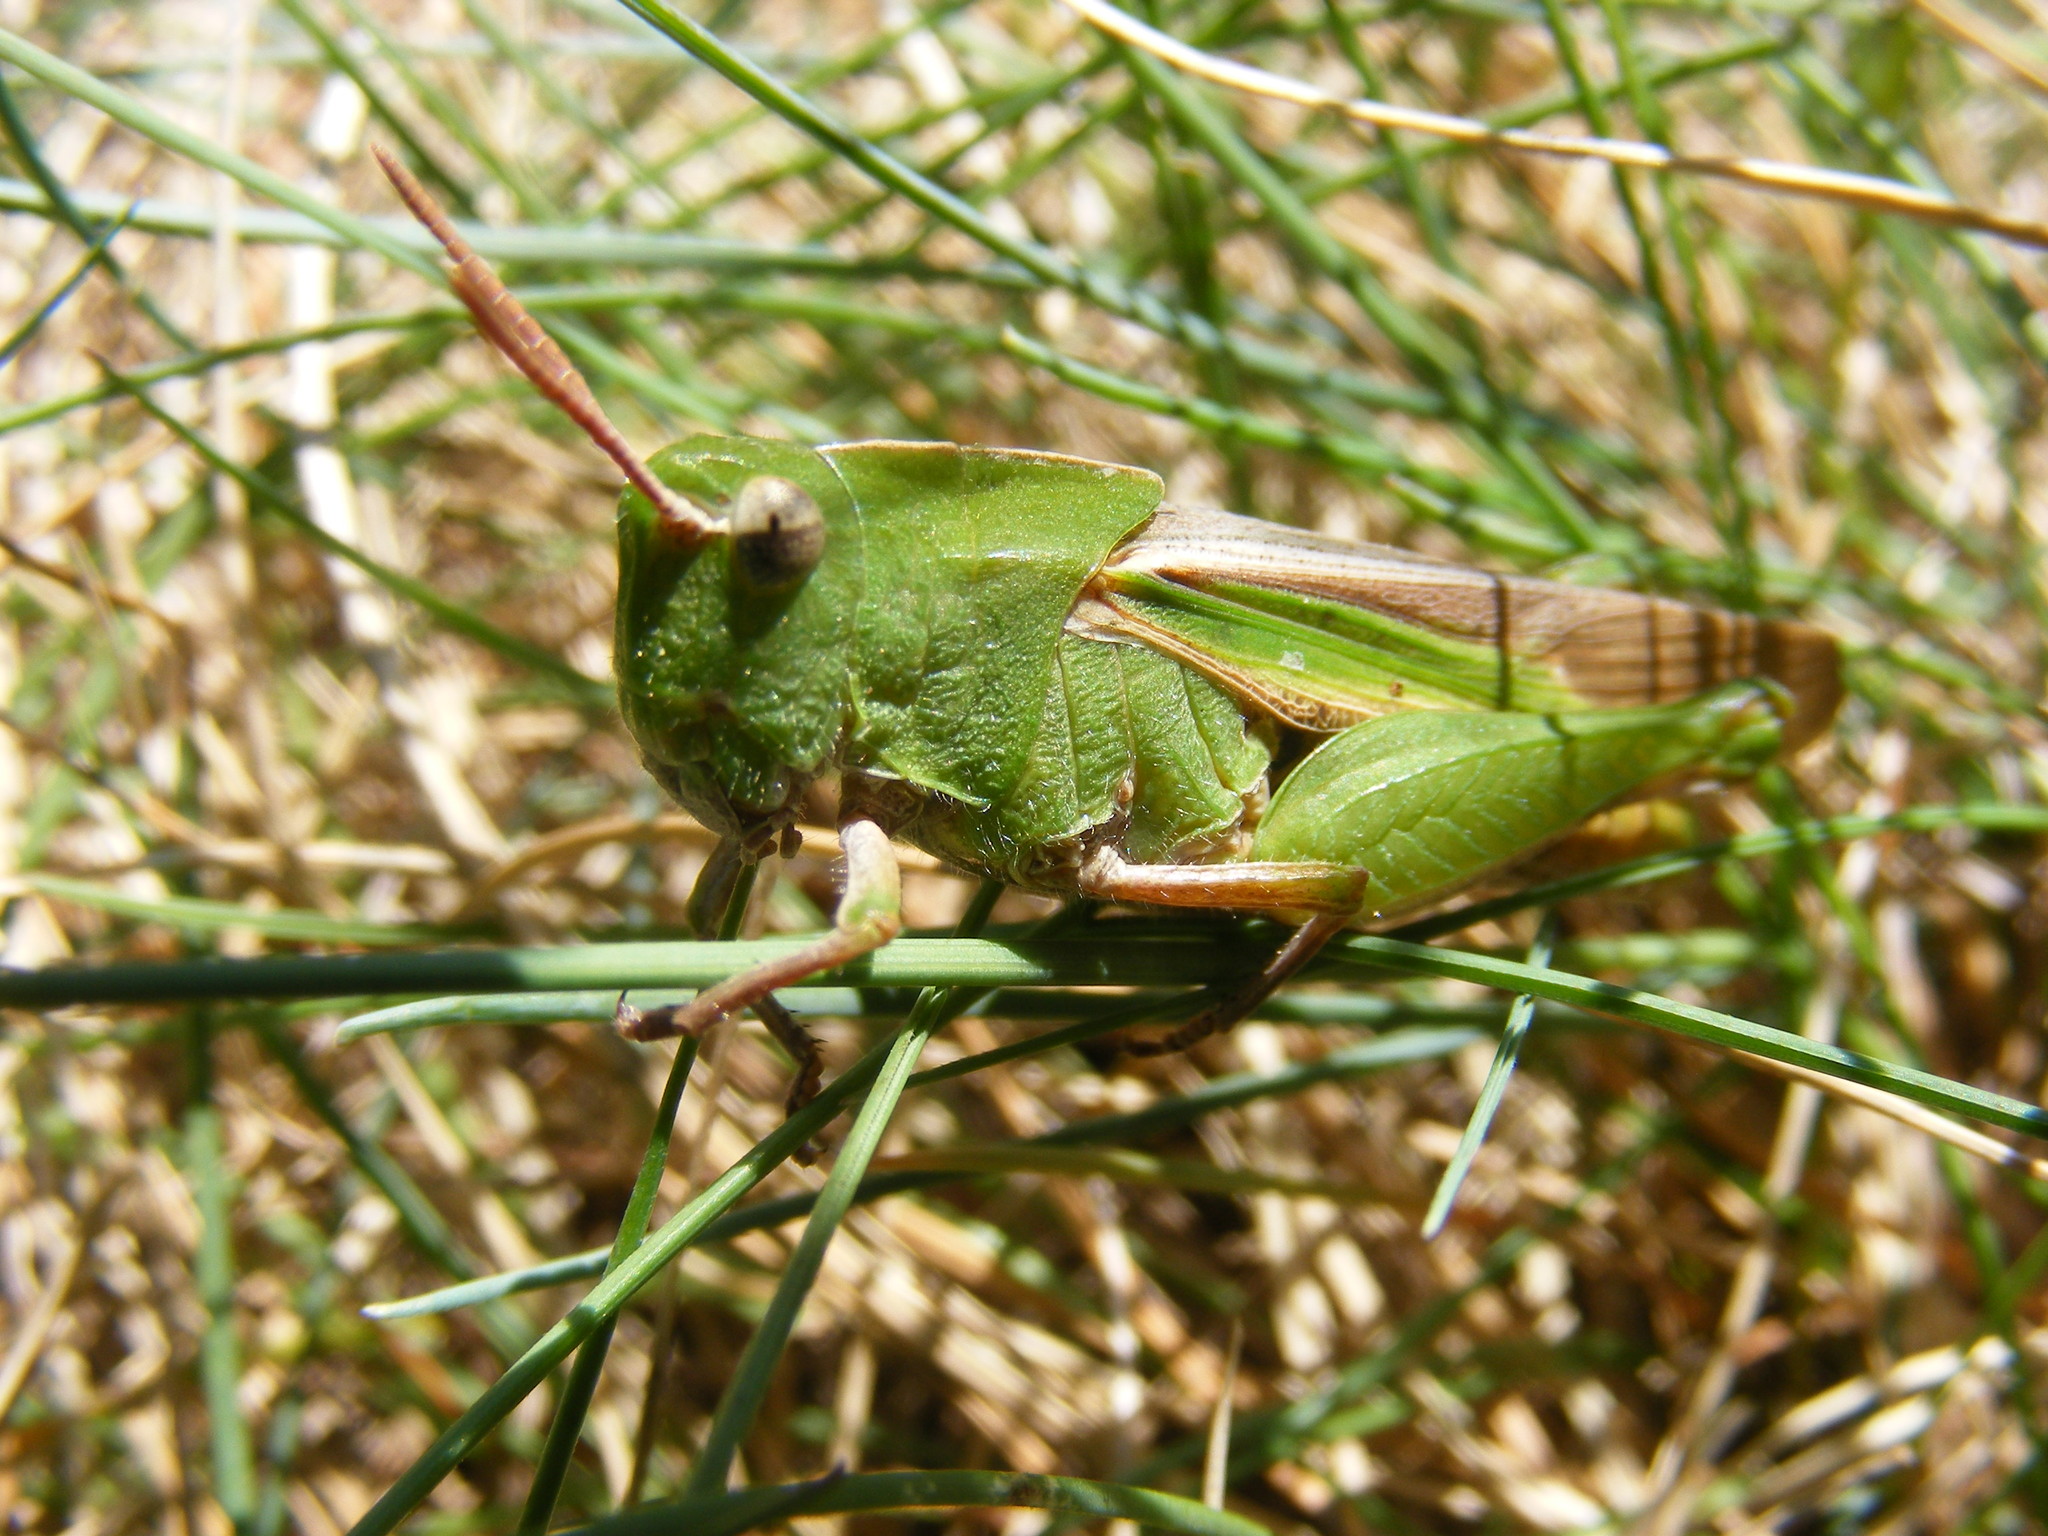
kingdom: Animalia
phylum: Arthropoda
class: Insecta
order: Orthoptera
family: Acrididae
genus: Chortophaga
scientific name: Chortophaga viridifasciata
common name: Green-striped grasshopper
